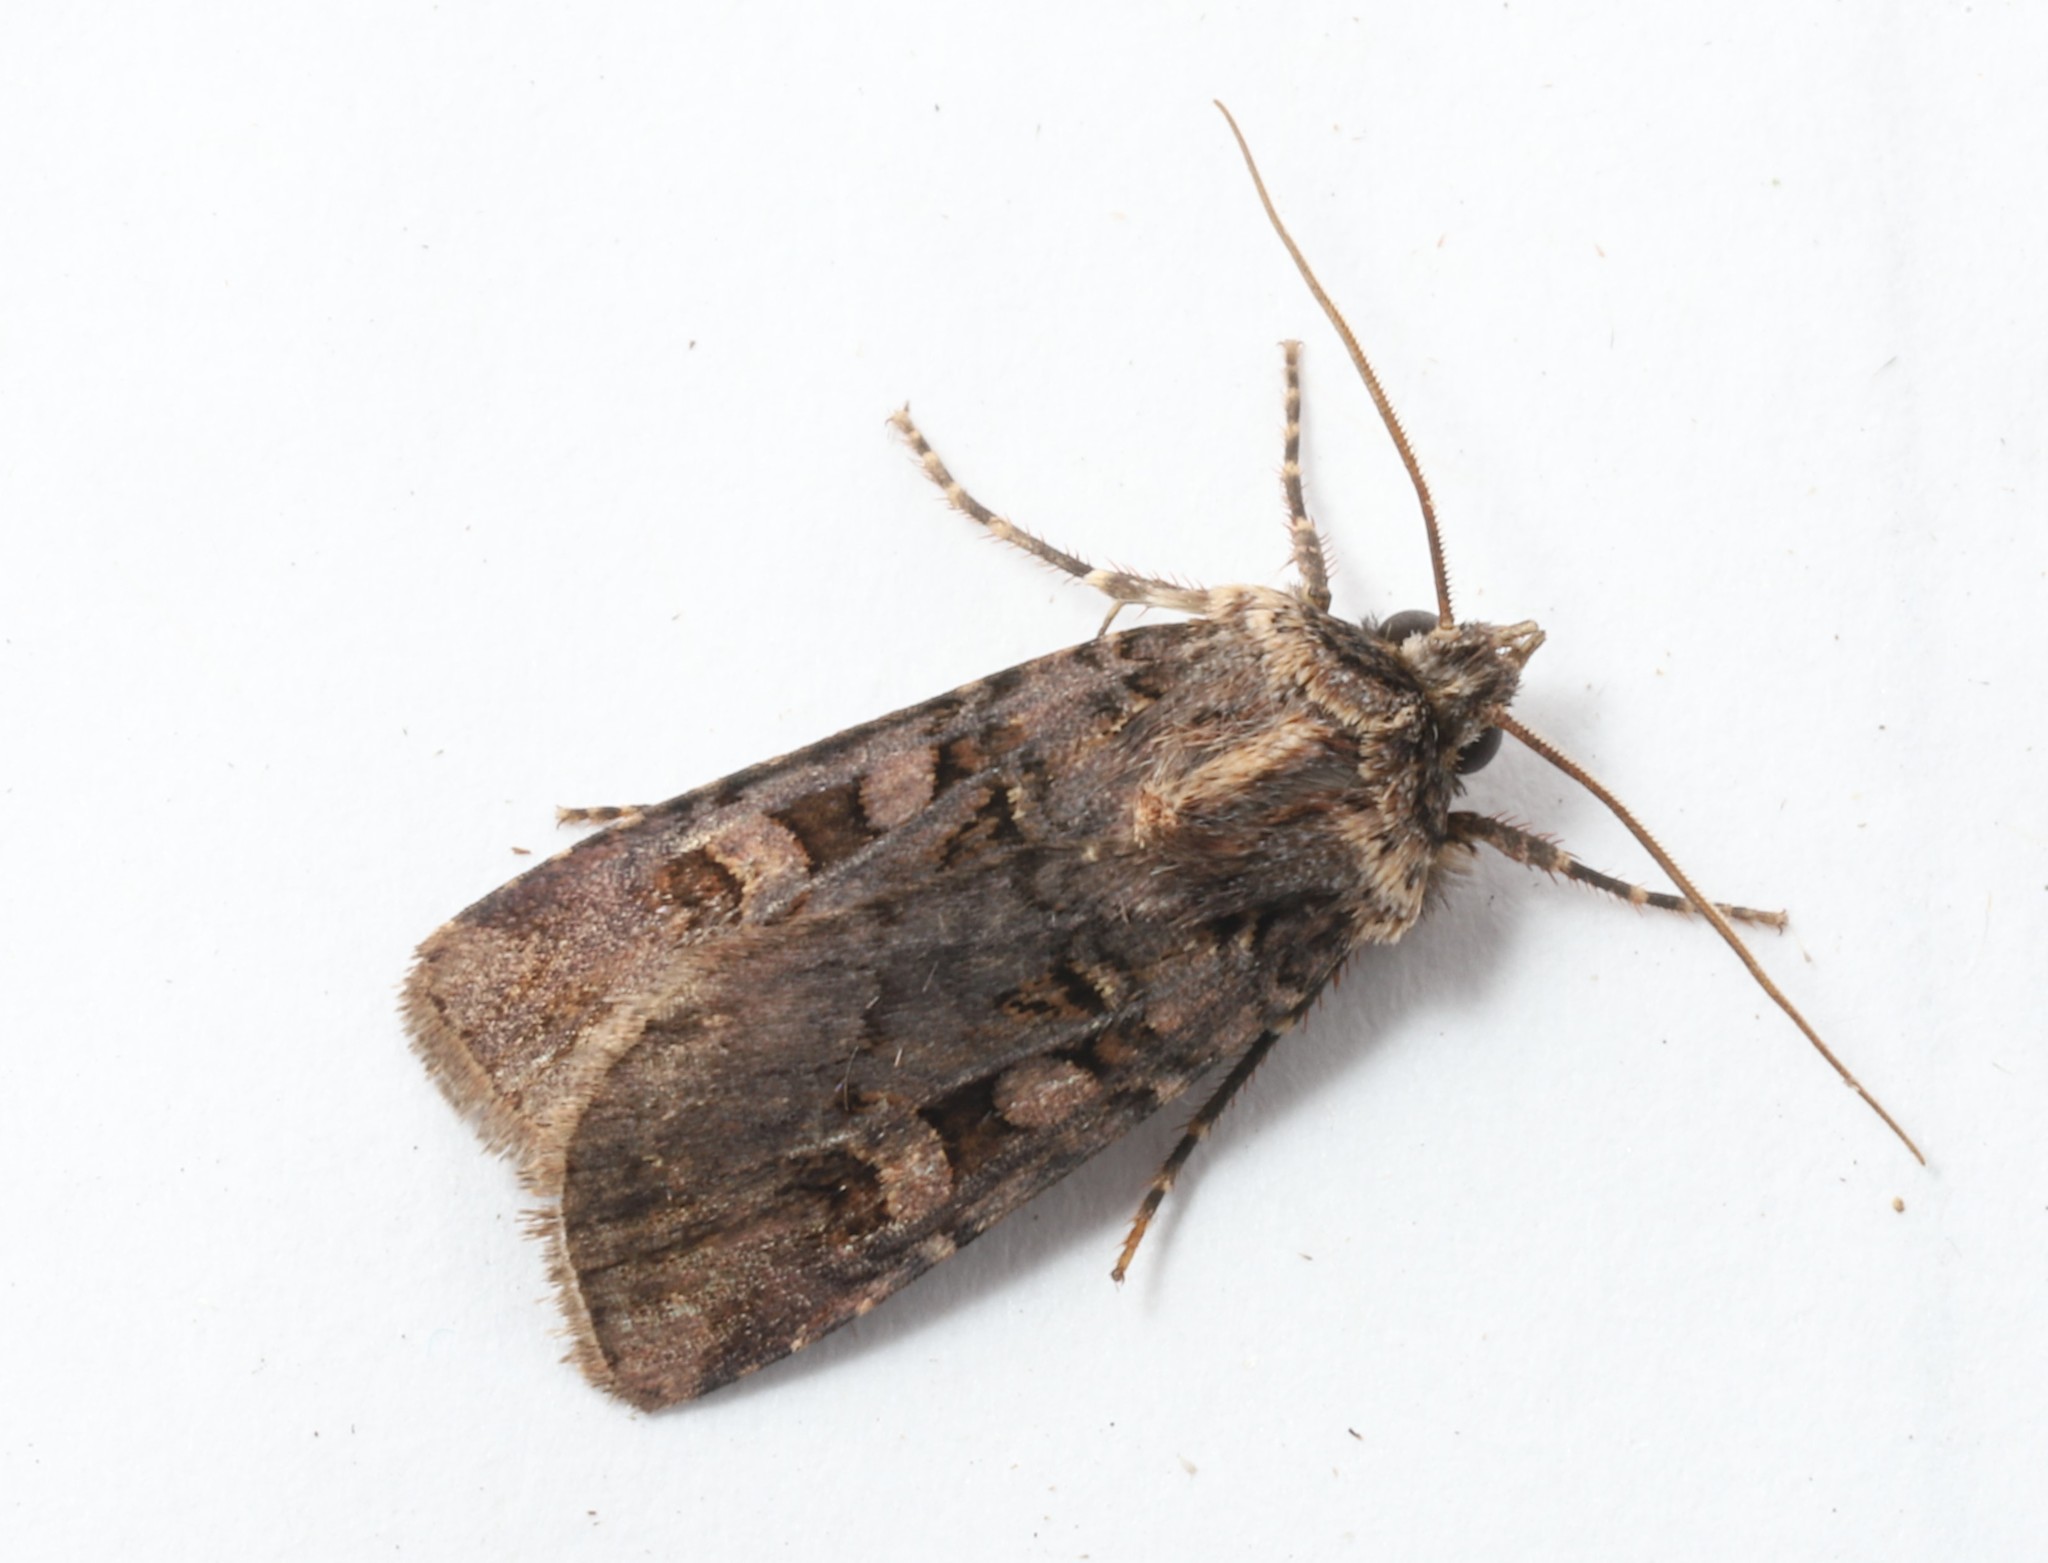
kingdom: Animalia
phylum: Arthropoda
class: Insecta
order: Lepidoptera
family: Noctuidae
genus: Euxoa
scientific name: Euxoa tessellata
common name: Striped cutworm
